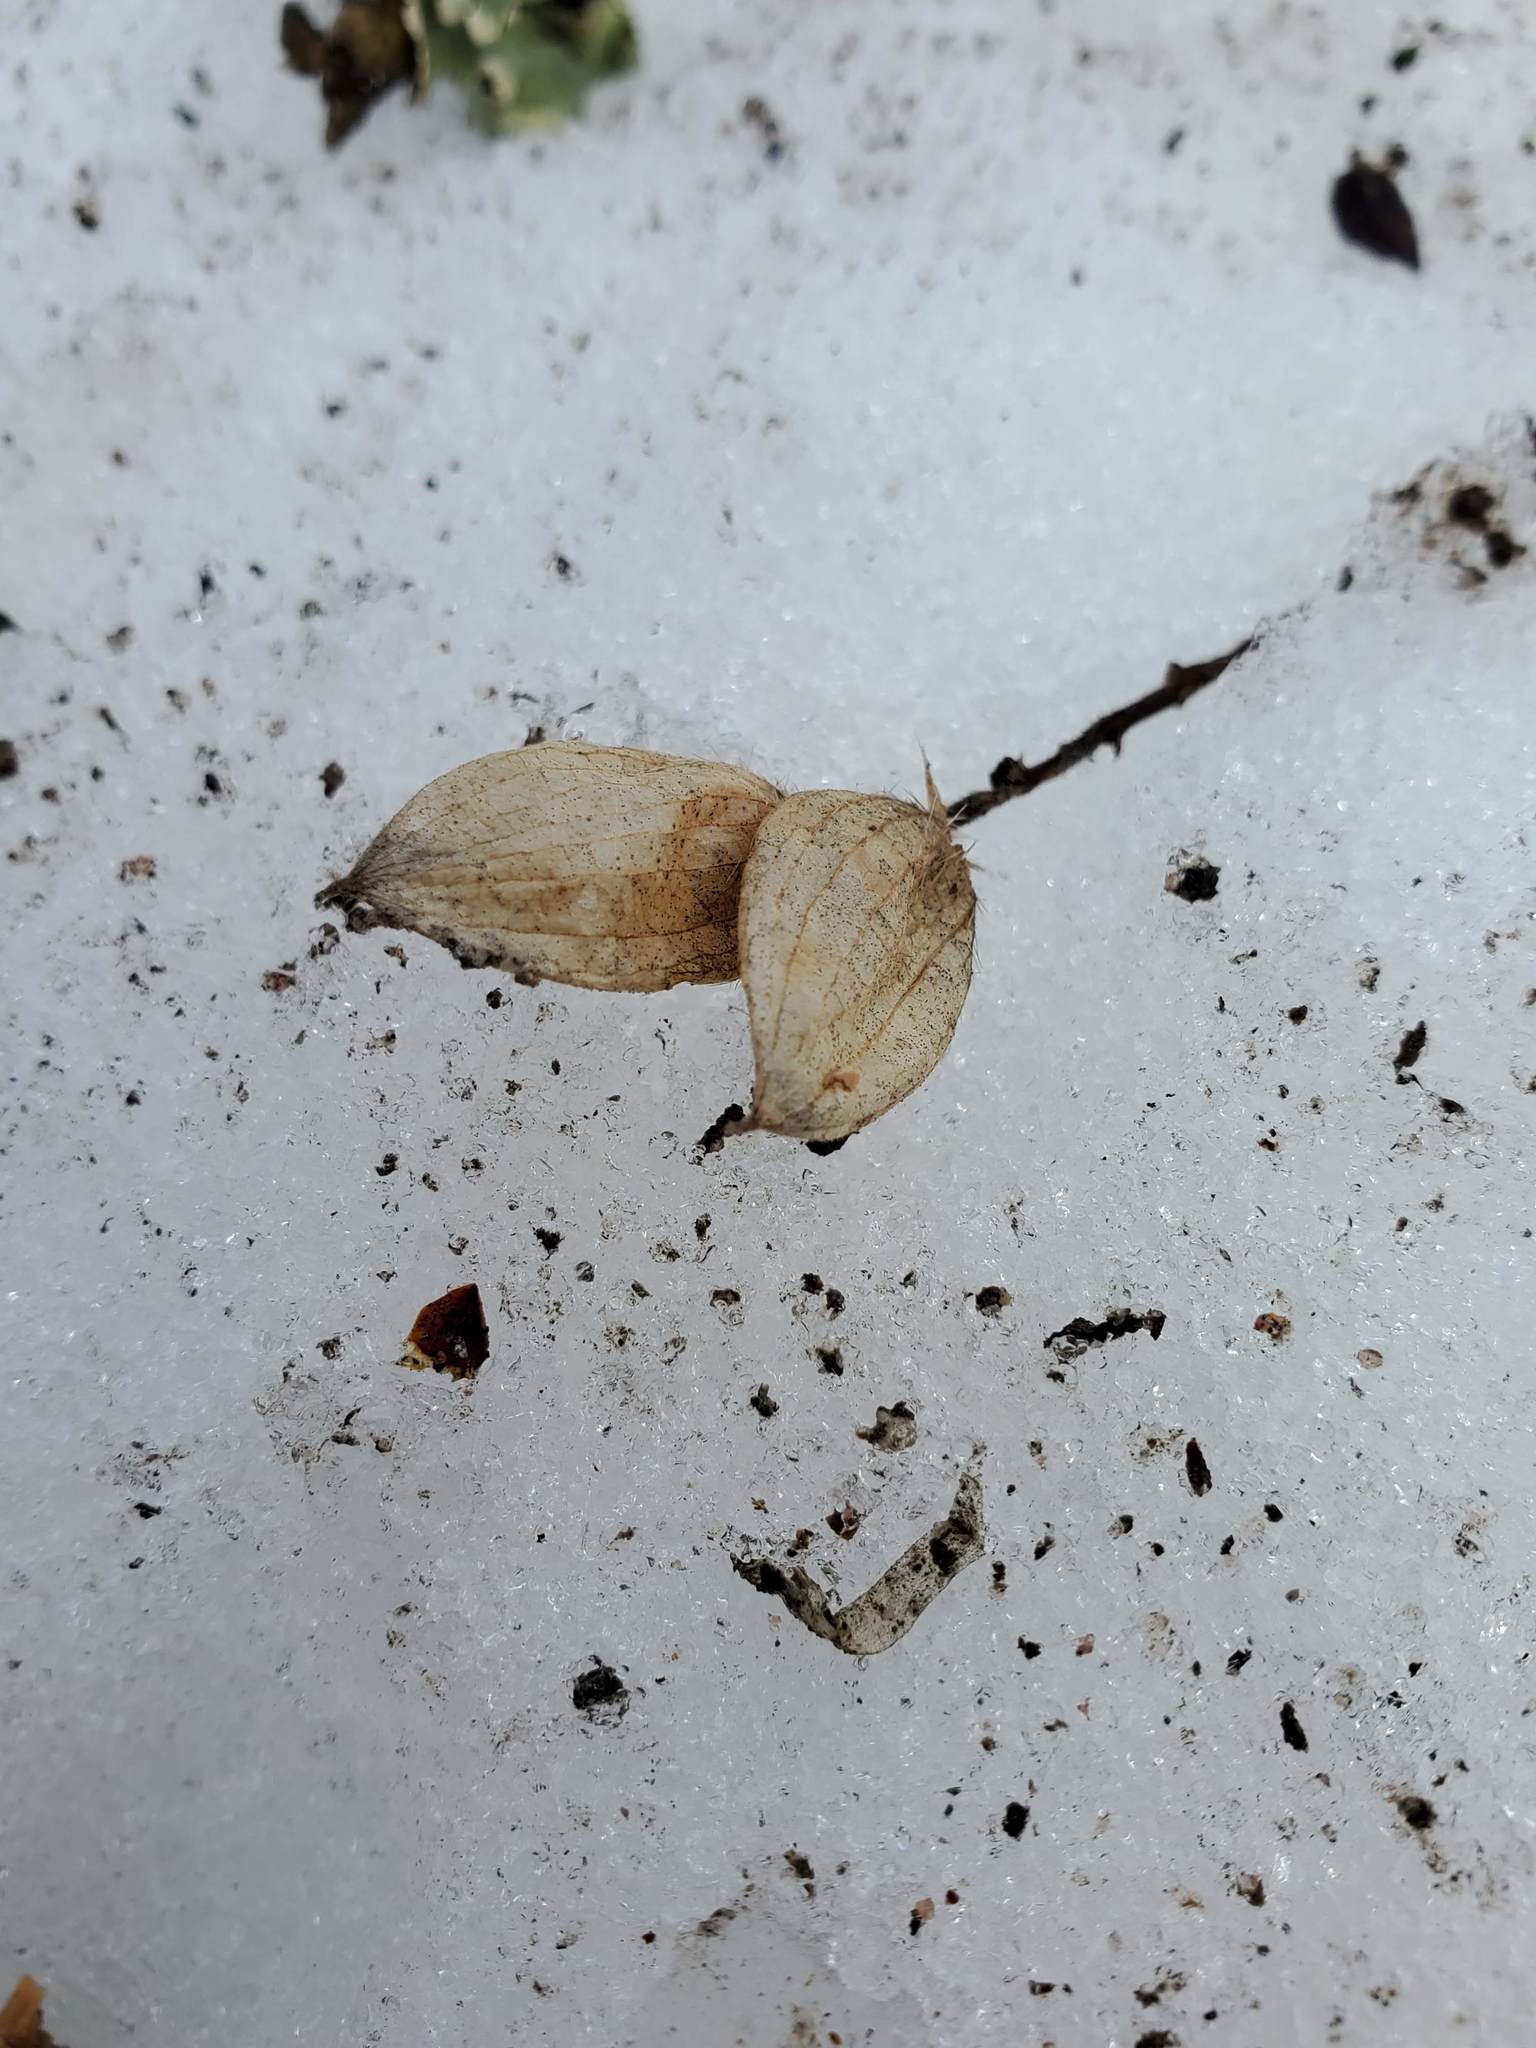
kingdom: Plantae
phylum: Tracheophyta
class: Magnoliopsida
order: Fagales
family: Betulaceae
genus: Ostrya
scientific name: Ostrya virginiana
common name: Ironwood
